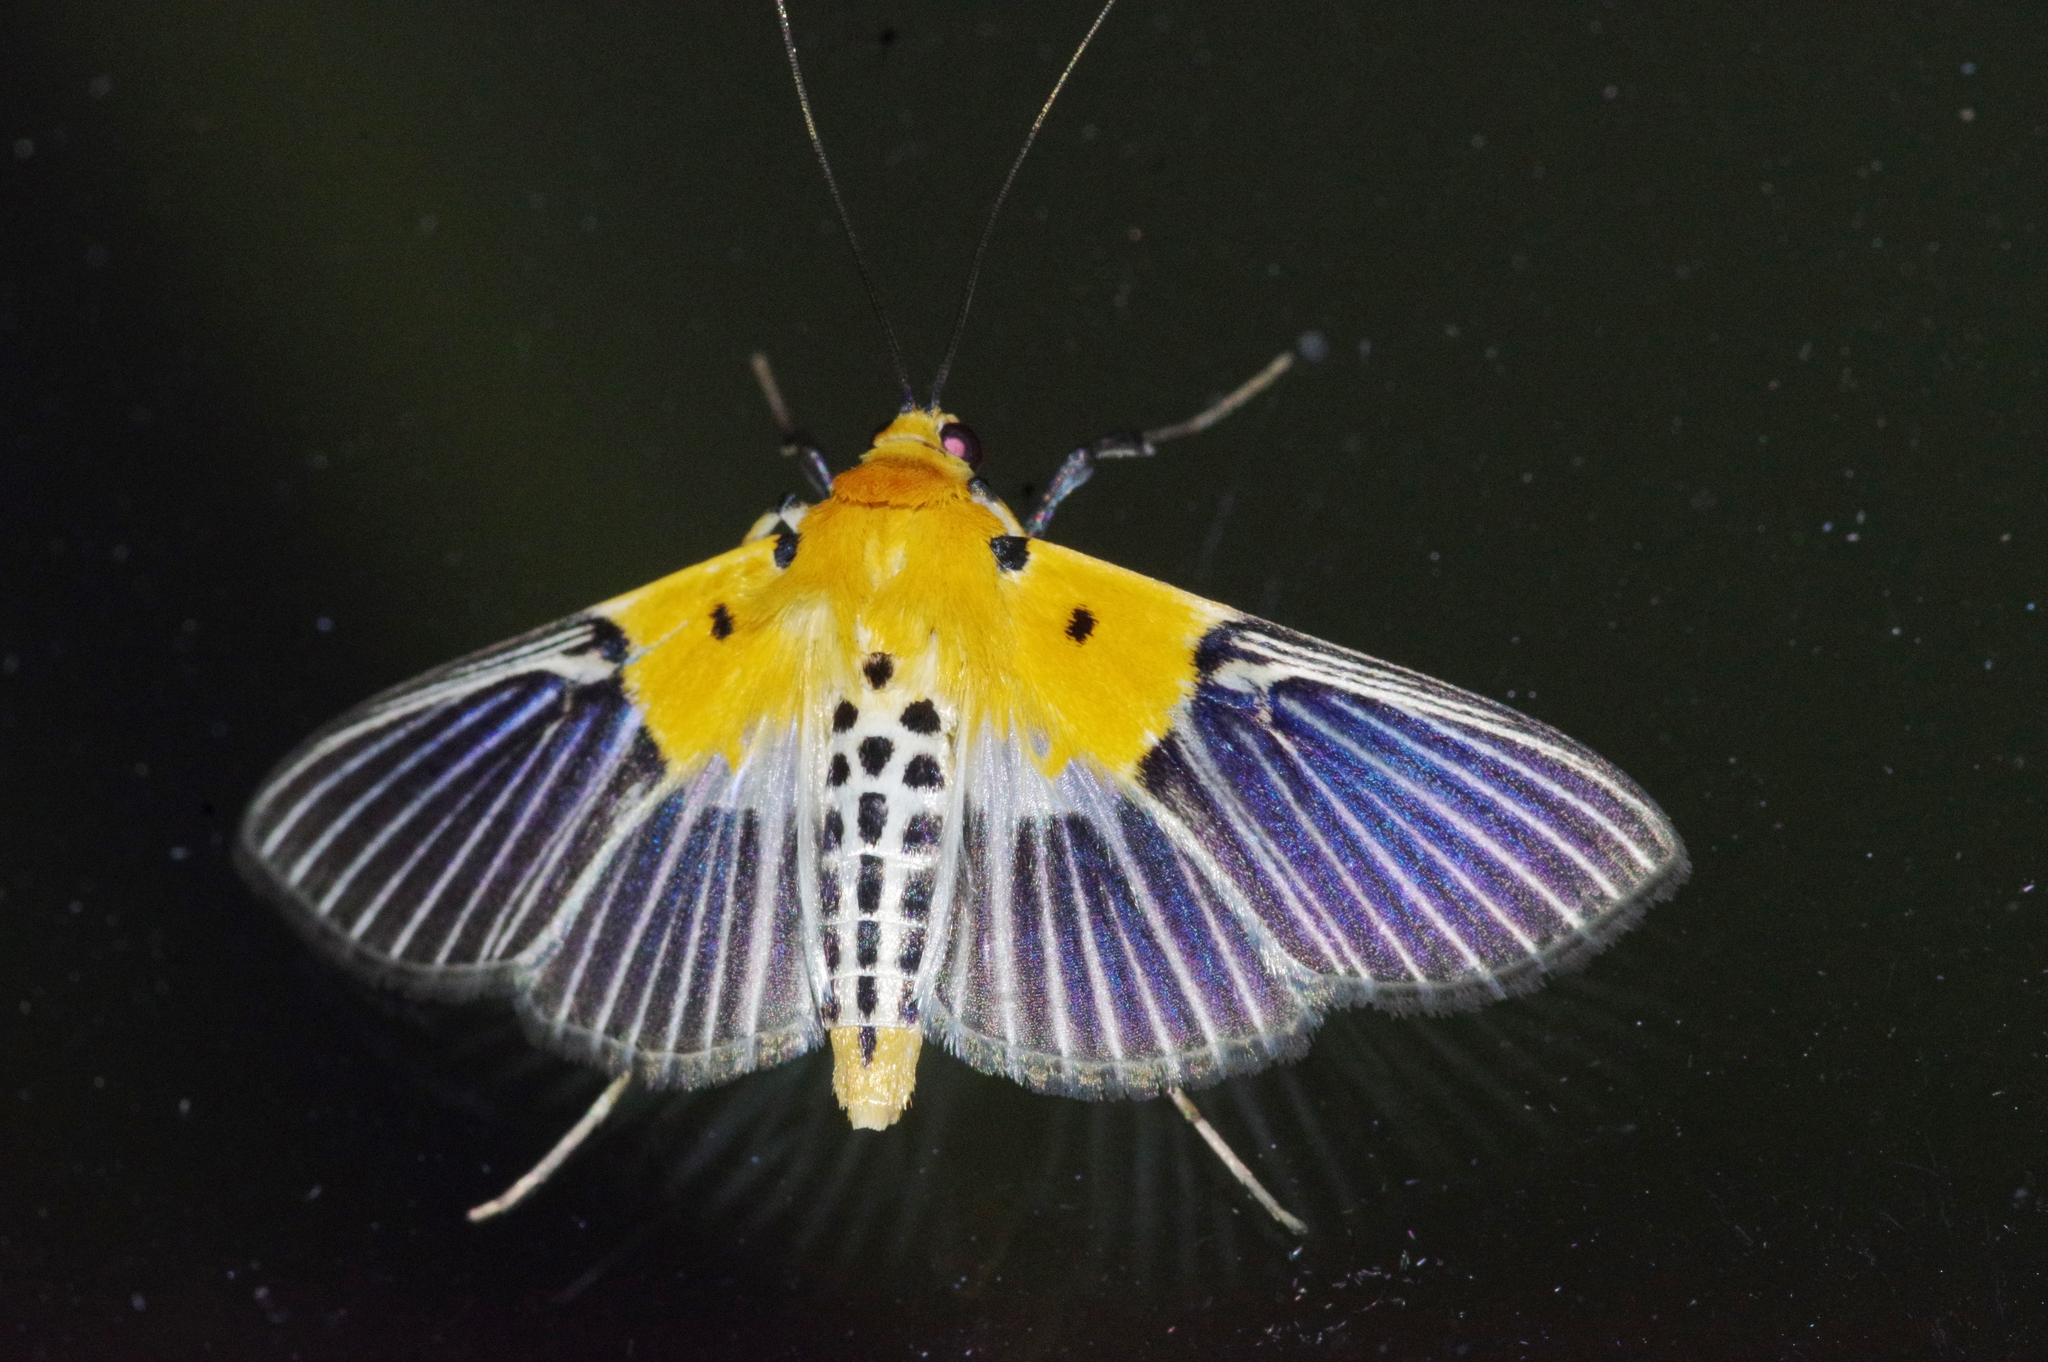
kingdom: Animalia
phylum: Arthropoda
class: Insecta
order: Lepidoptera
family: Crambidae
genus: Nevrina
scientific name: Nevrina procopia
